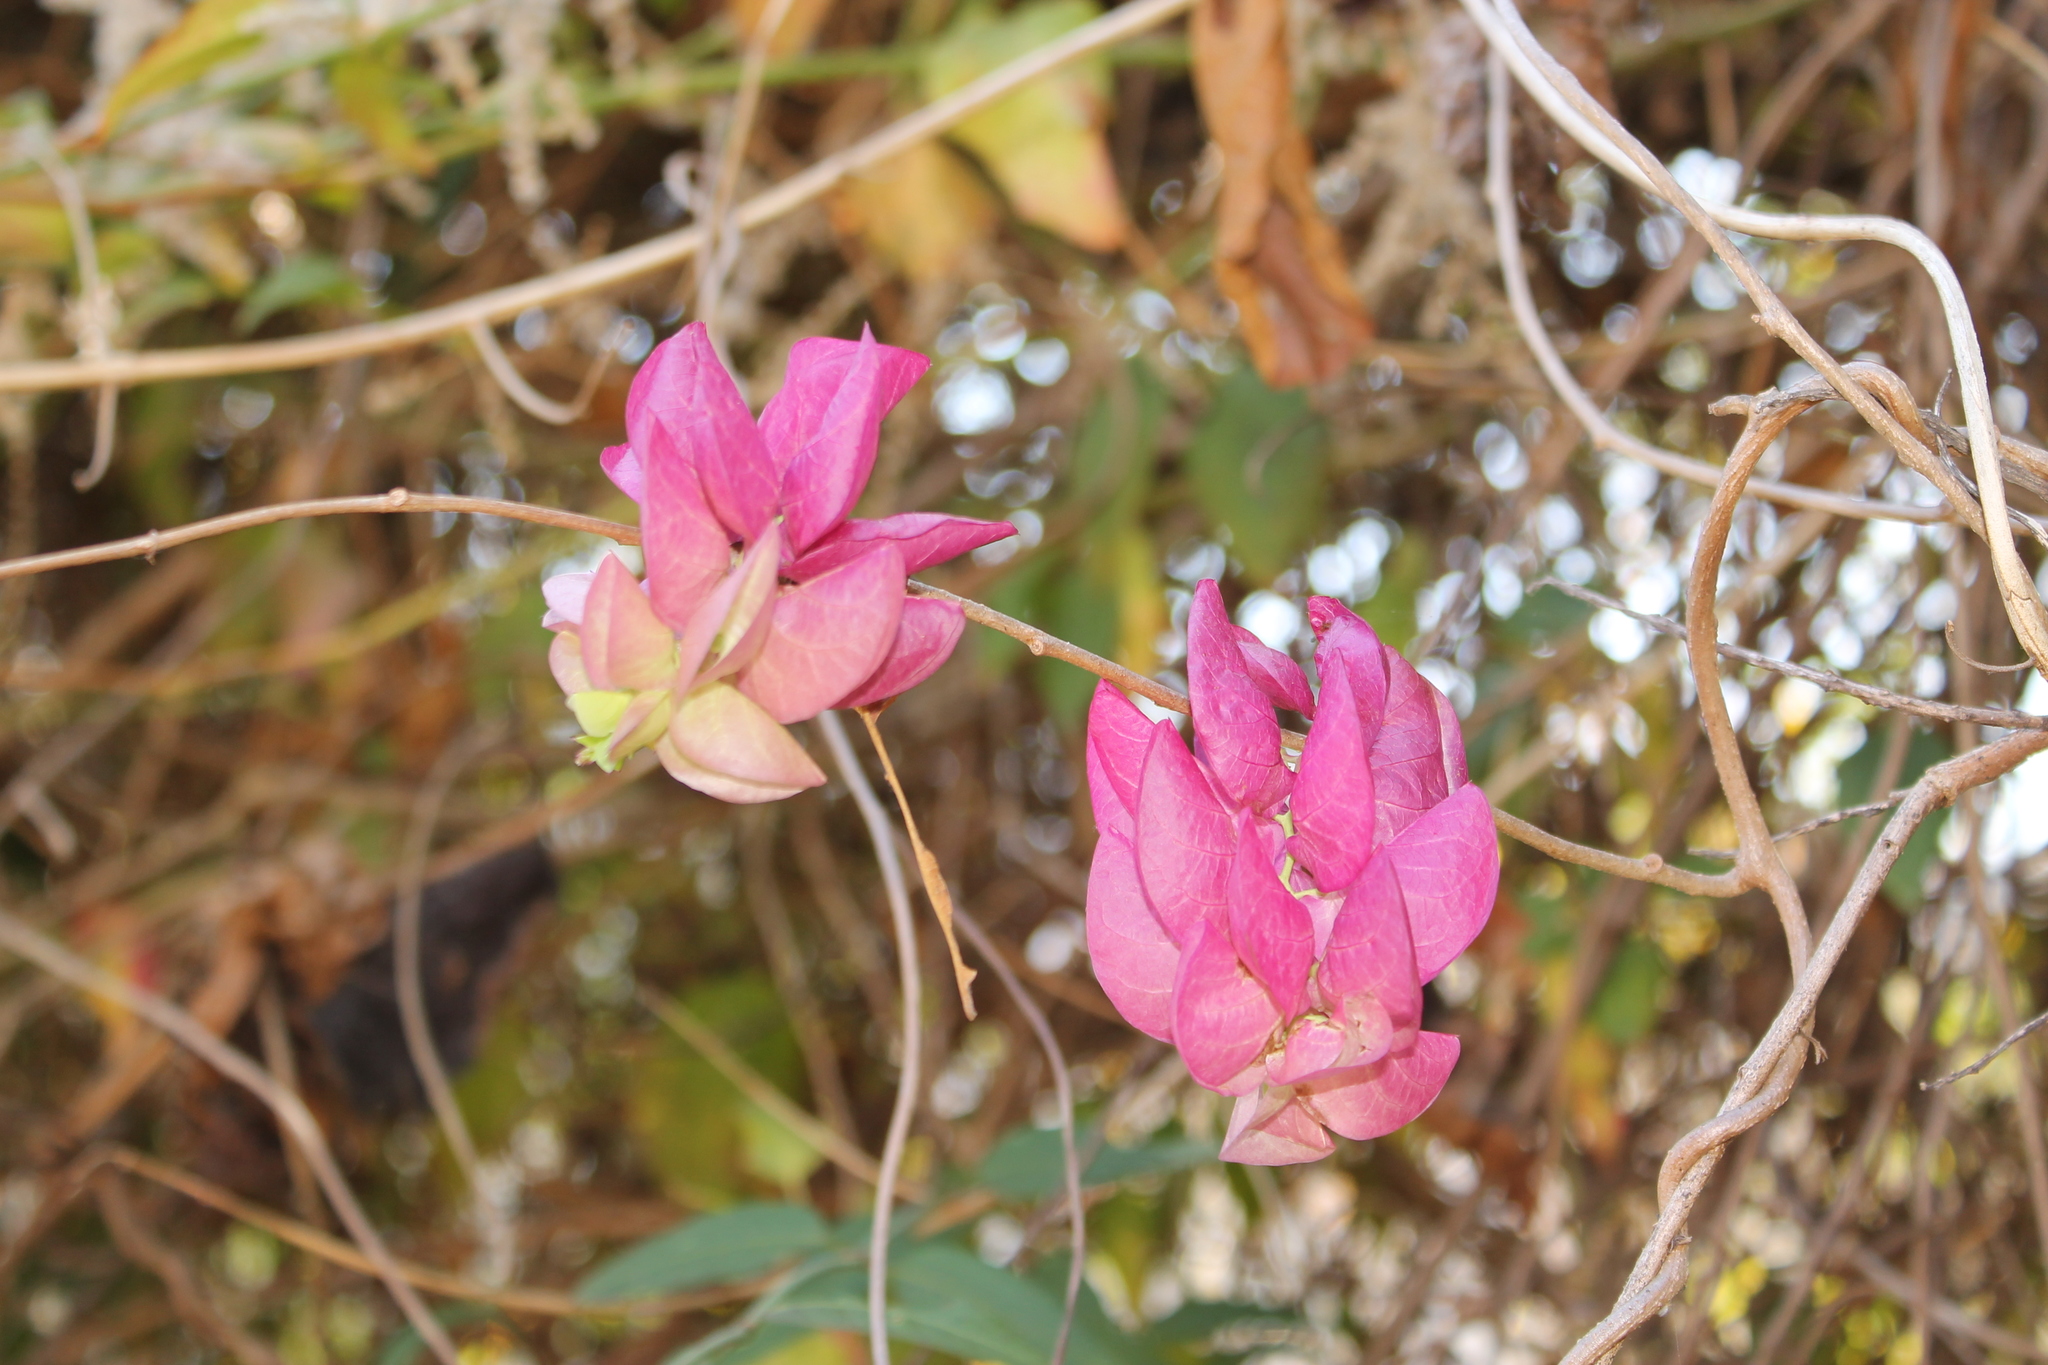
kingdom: Plantae
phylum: Tracheophyta
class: Magnoliopsida
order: Solanales
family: Convolvulaceae
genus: Ipomoea
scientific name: Ipomoea bracteata
